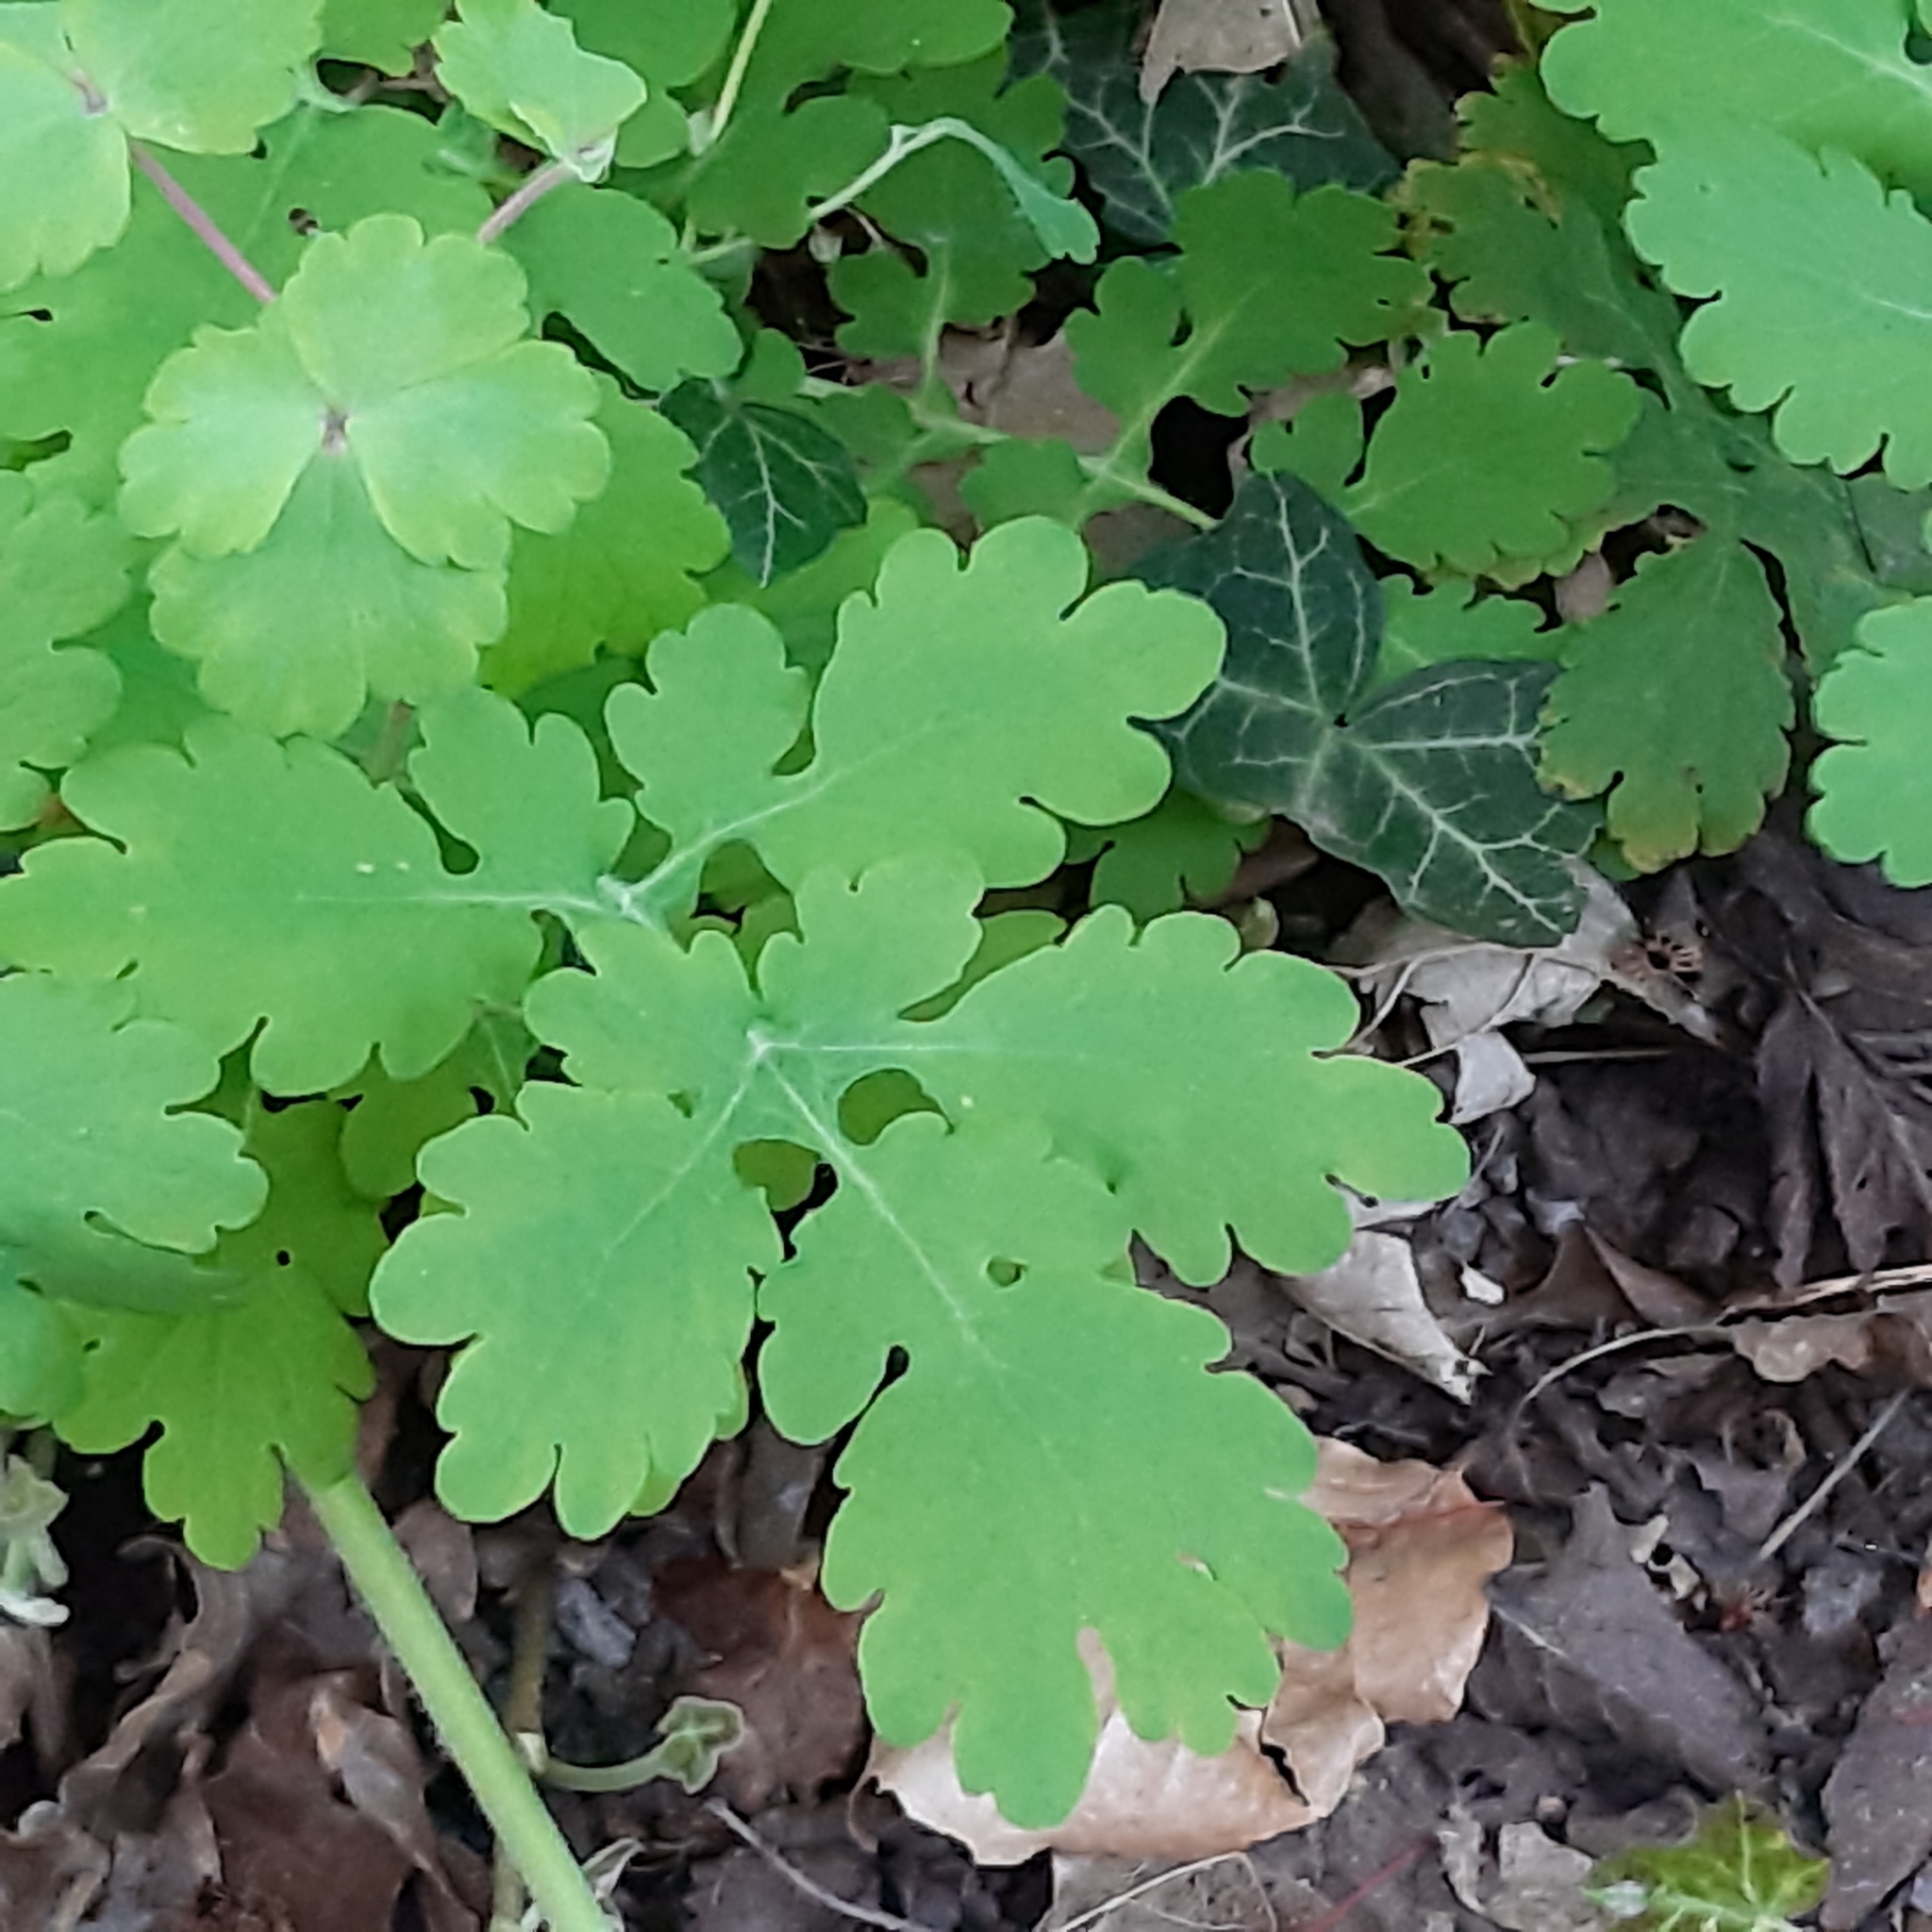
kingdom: Plantae
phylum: Tracheophyta
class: Magnoliopsida
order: Ranunculales
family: Papaveraceae
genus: Chelidonium
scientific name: Chelidonium majus
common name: Greater celandine
